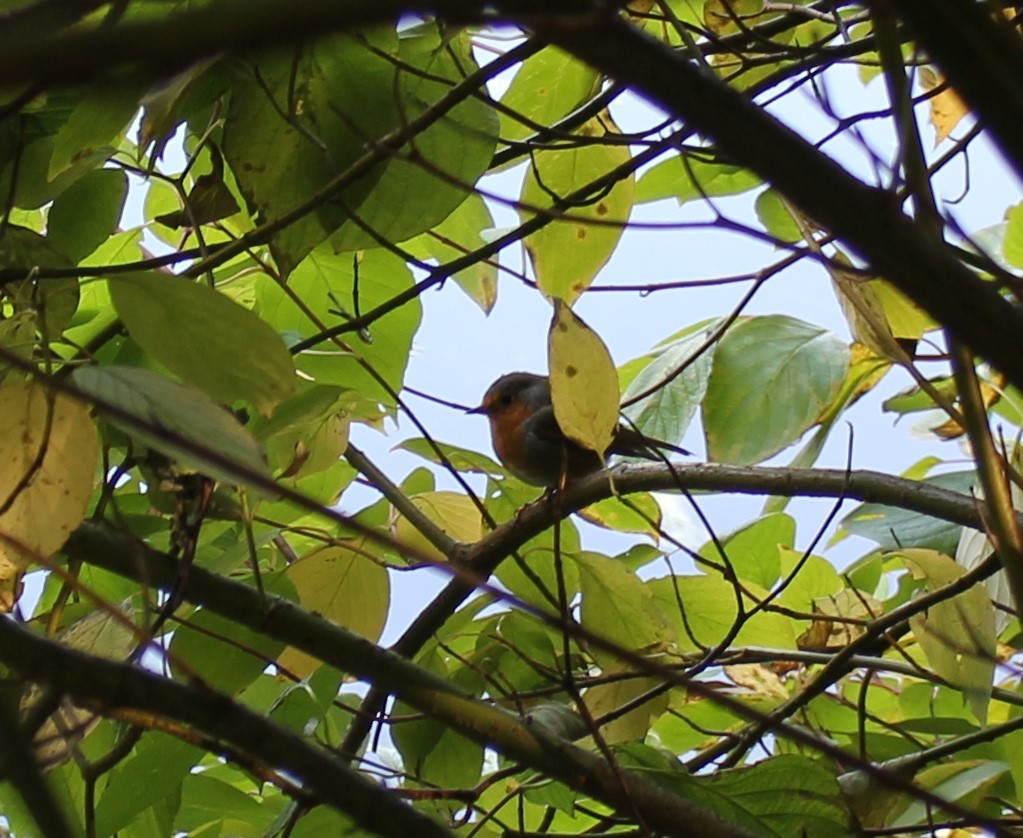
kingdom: Animalia
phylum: Chordata
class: Aves
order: Passeriformes
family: Muscicapidae
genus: Erithacus
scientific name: Erithacus rubecula
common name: European robin
